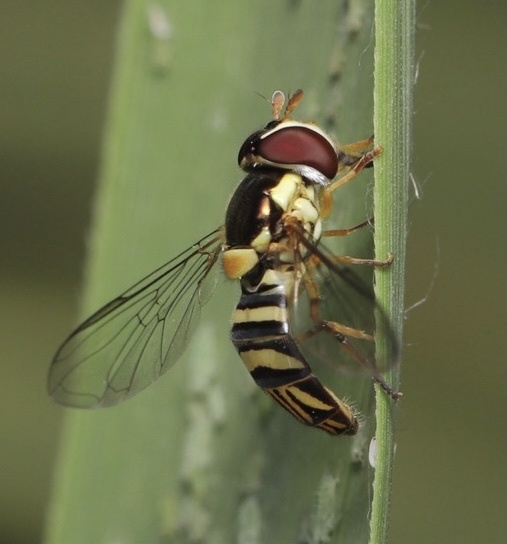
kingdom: Animalia
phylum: Arthropoda
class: Insecta
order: Diptera
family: Syrphidae
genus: Allograpta
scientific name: Allograpta obliqua
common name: Common oblique syrphid
